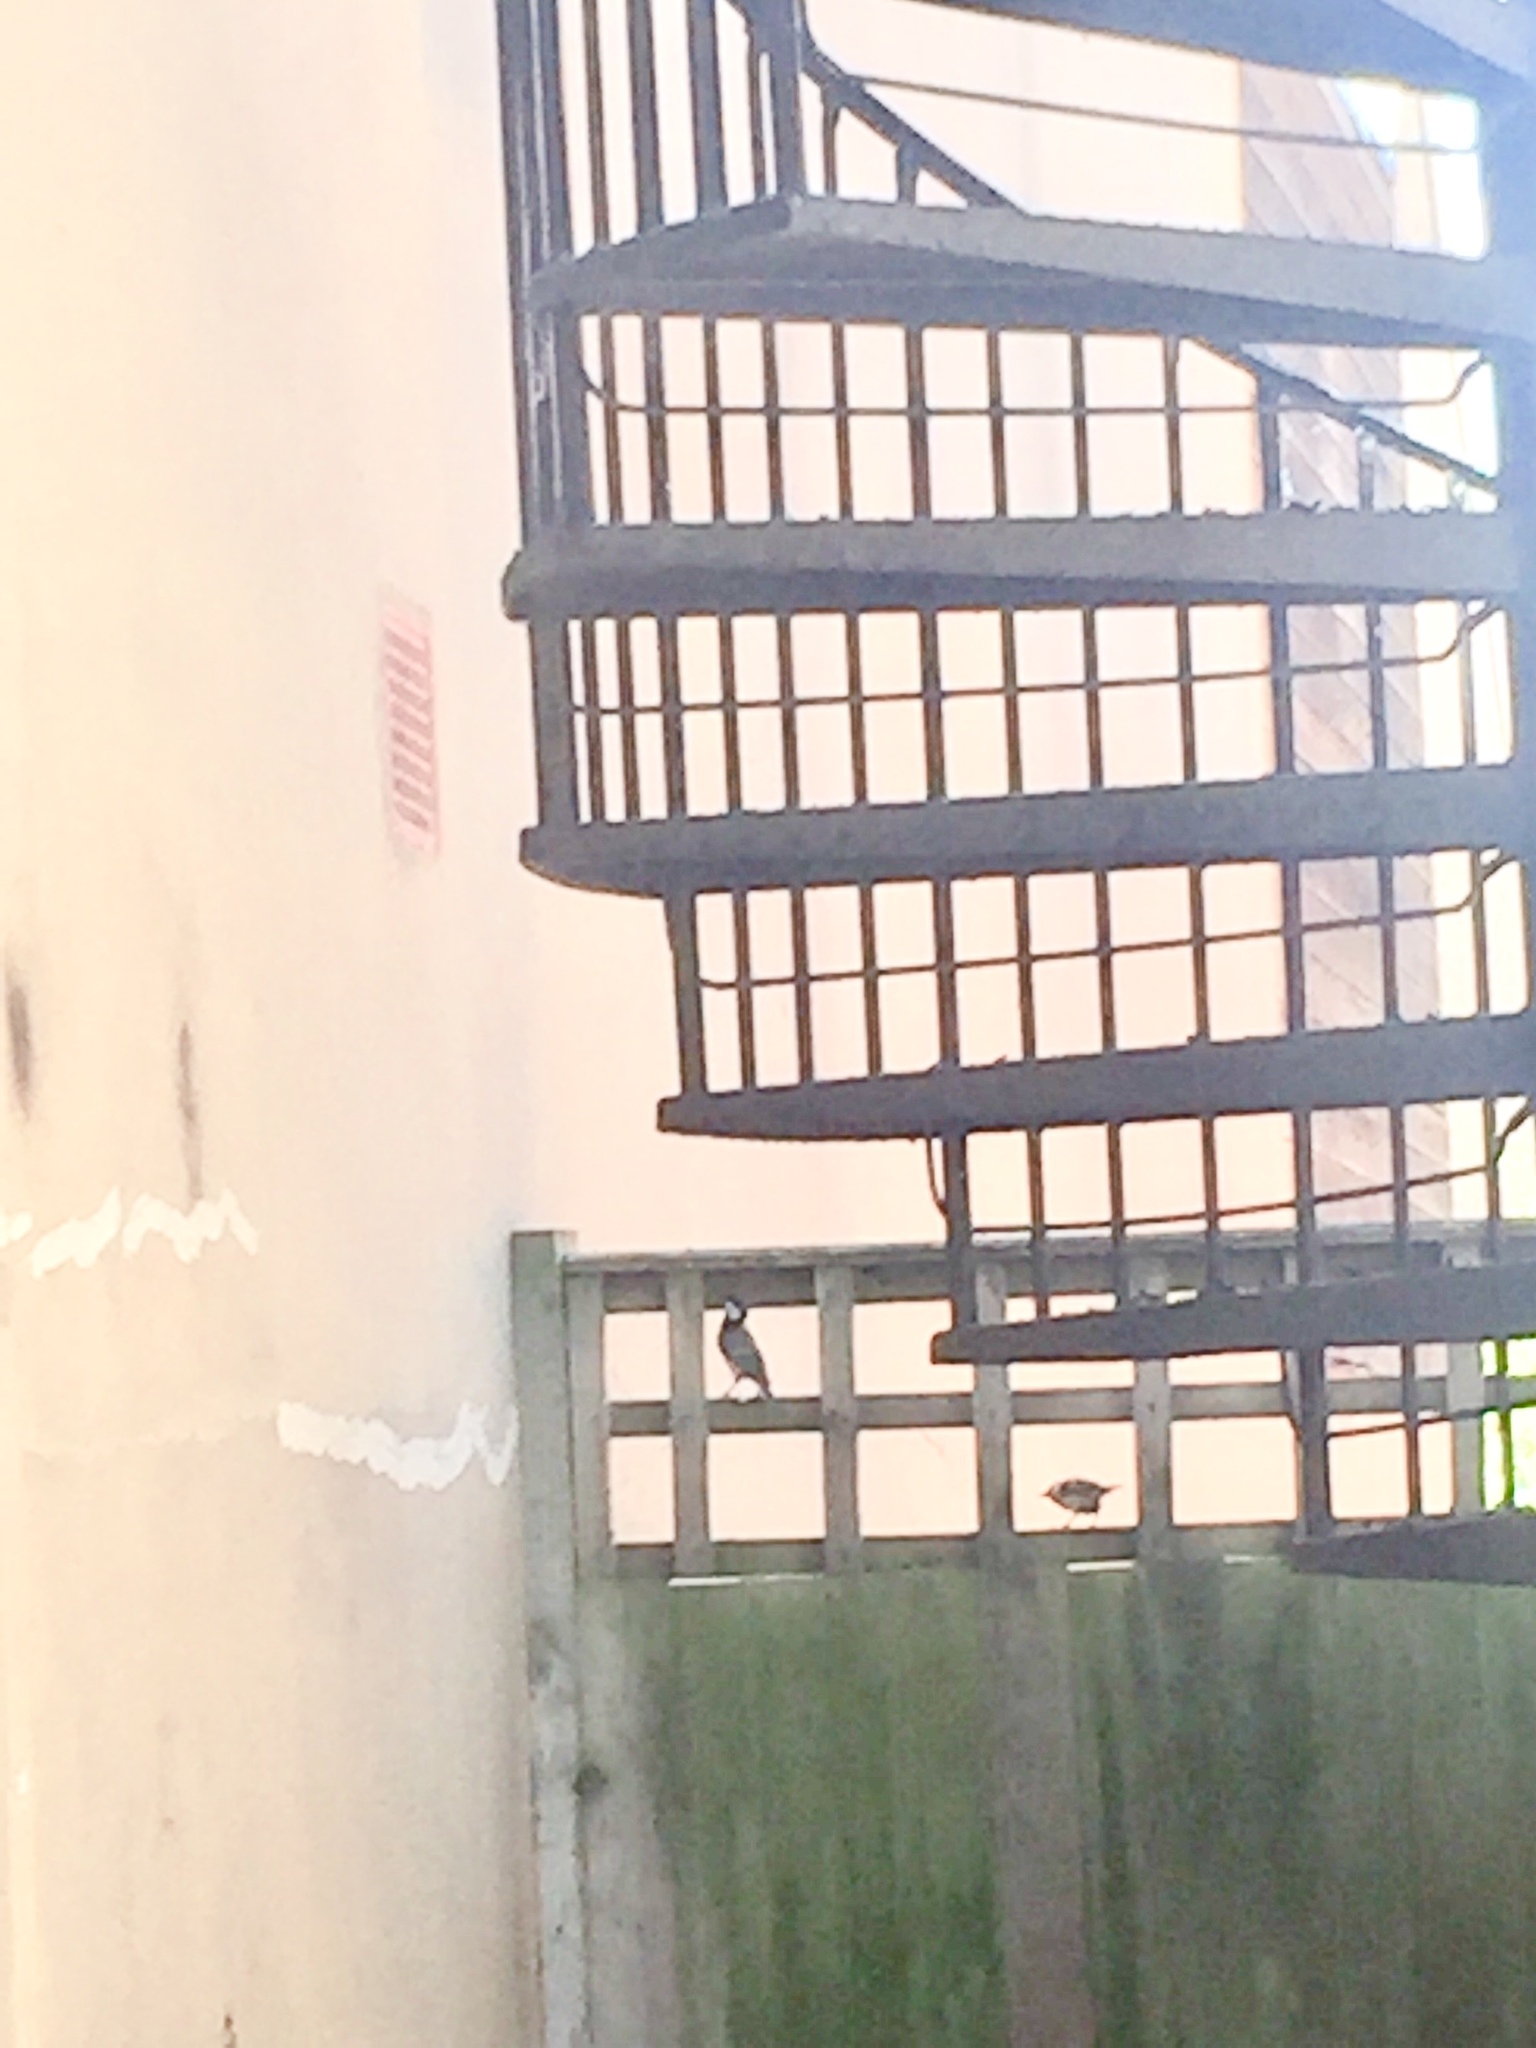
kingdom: Animalia
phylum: Chordata
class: Aves
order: Passeriformes
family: Paridae
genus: Parus
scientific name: Parus major
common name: Great tit
